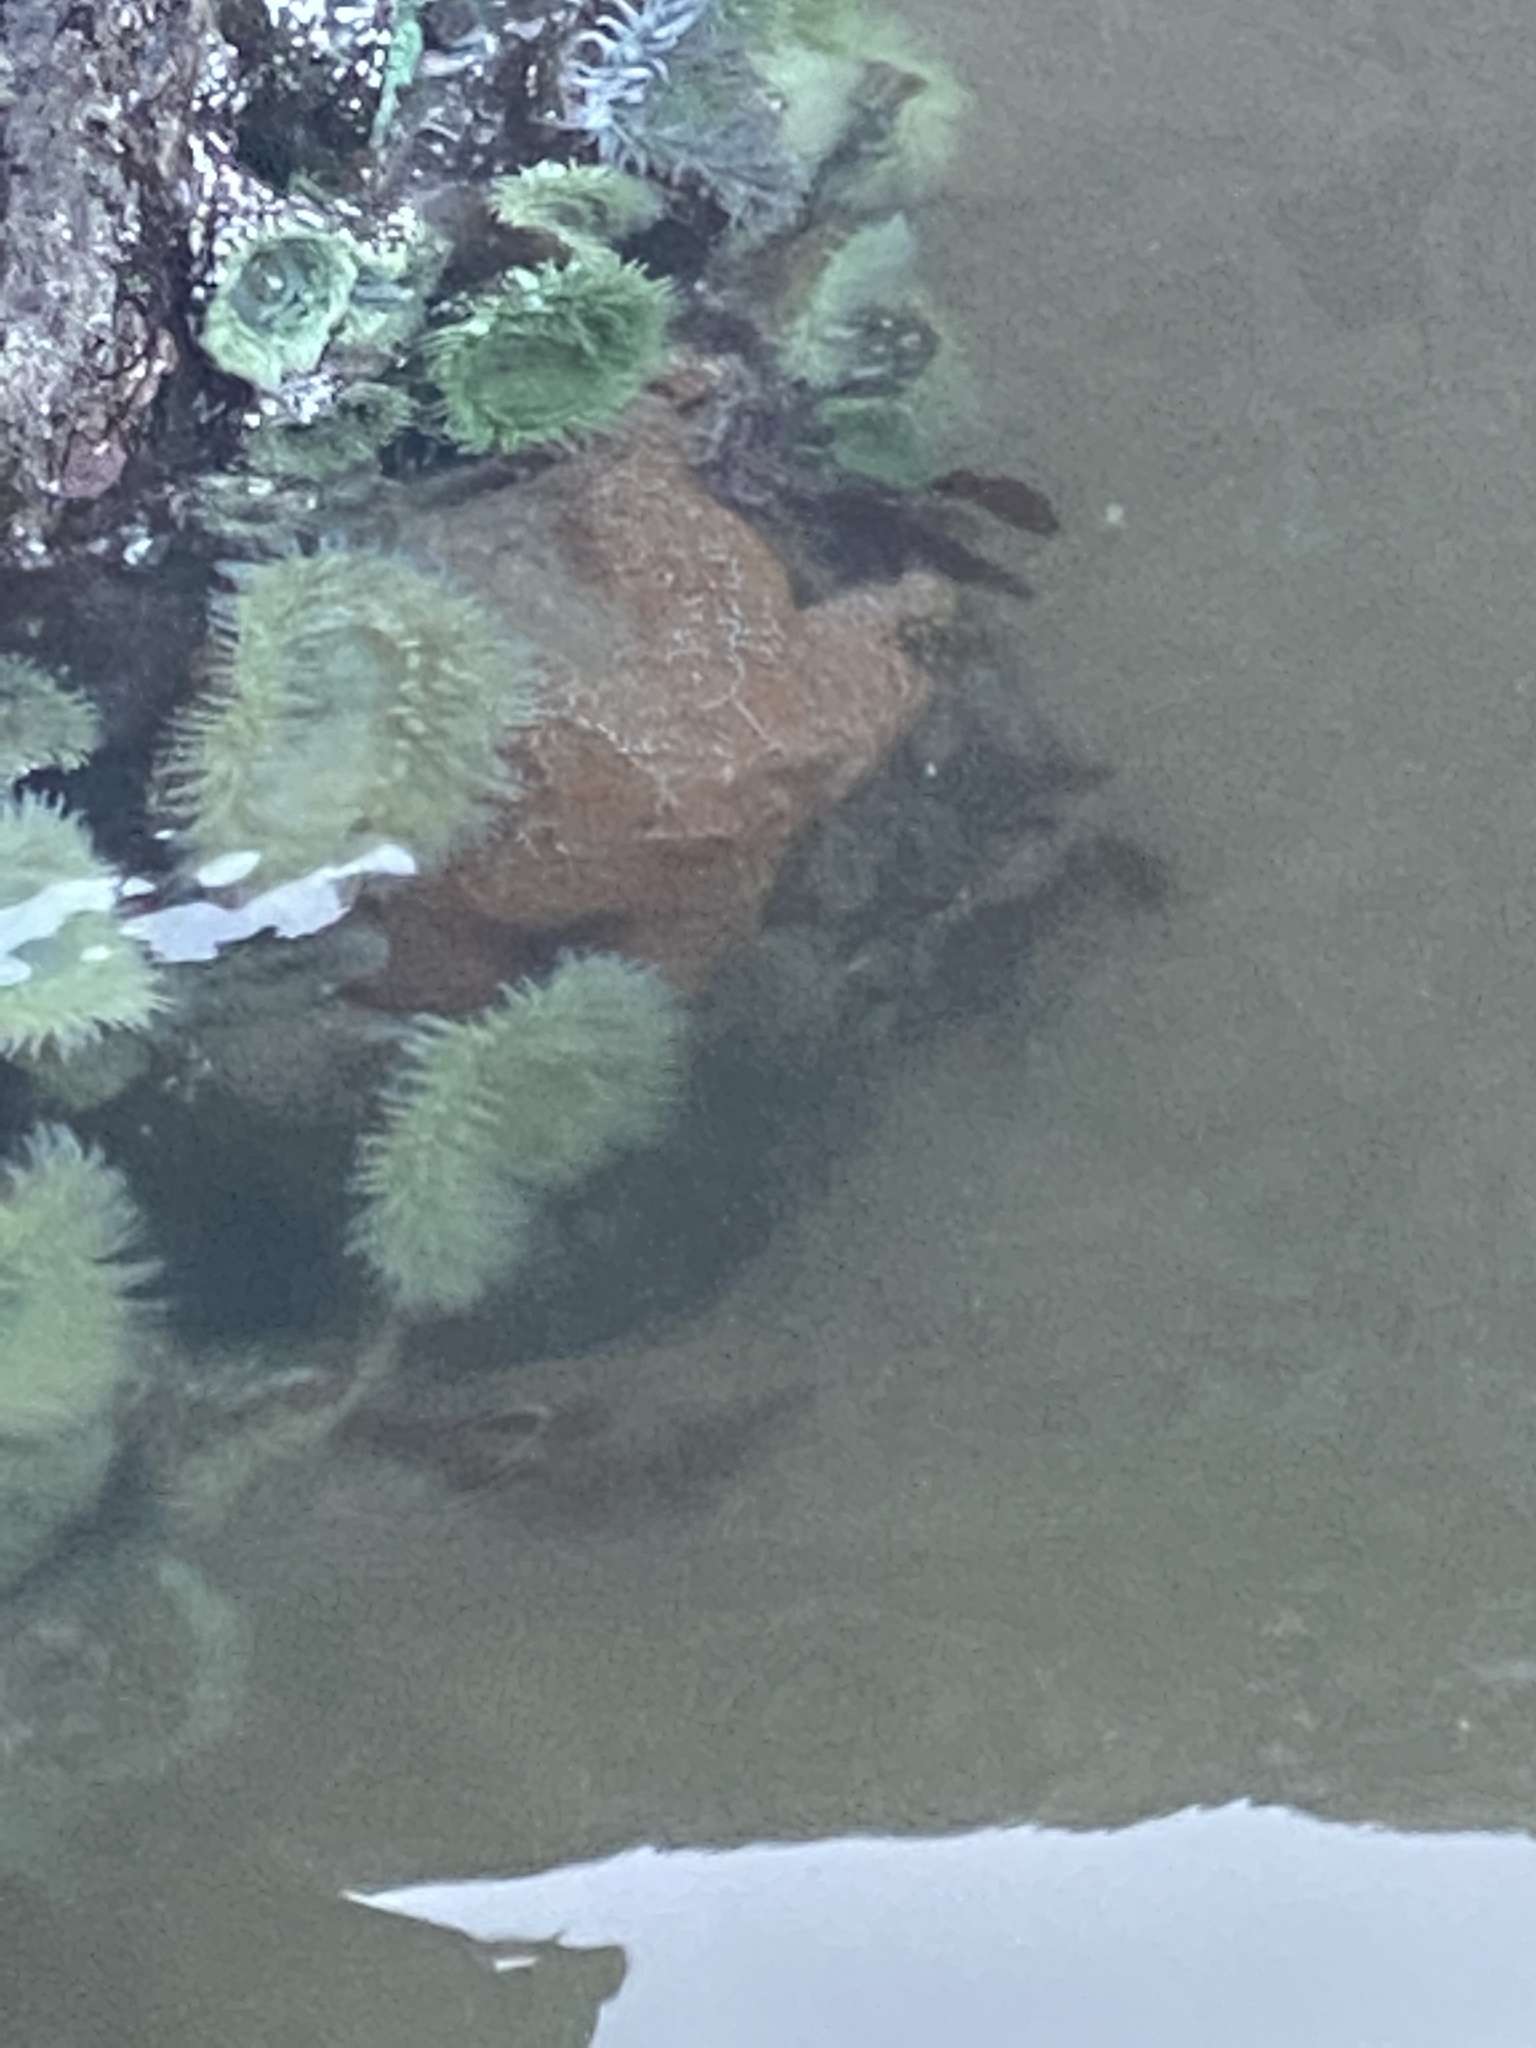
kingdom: Animalia
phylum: Cnidaria
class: Anthozoa
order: Actiniaria
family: Actiniidae
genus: Anthopleura
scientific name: Anthopleura xanthogrammica
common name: Giant green anemone
